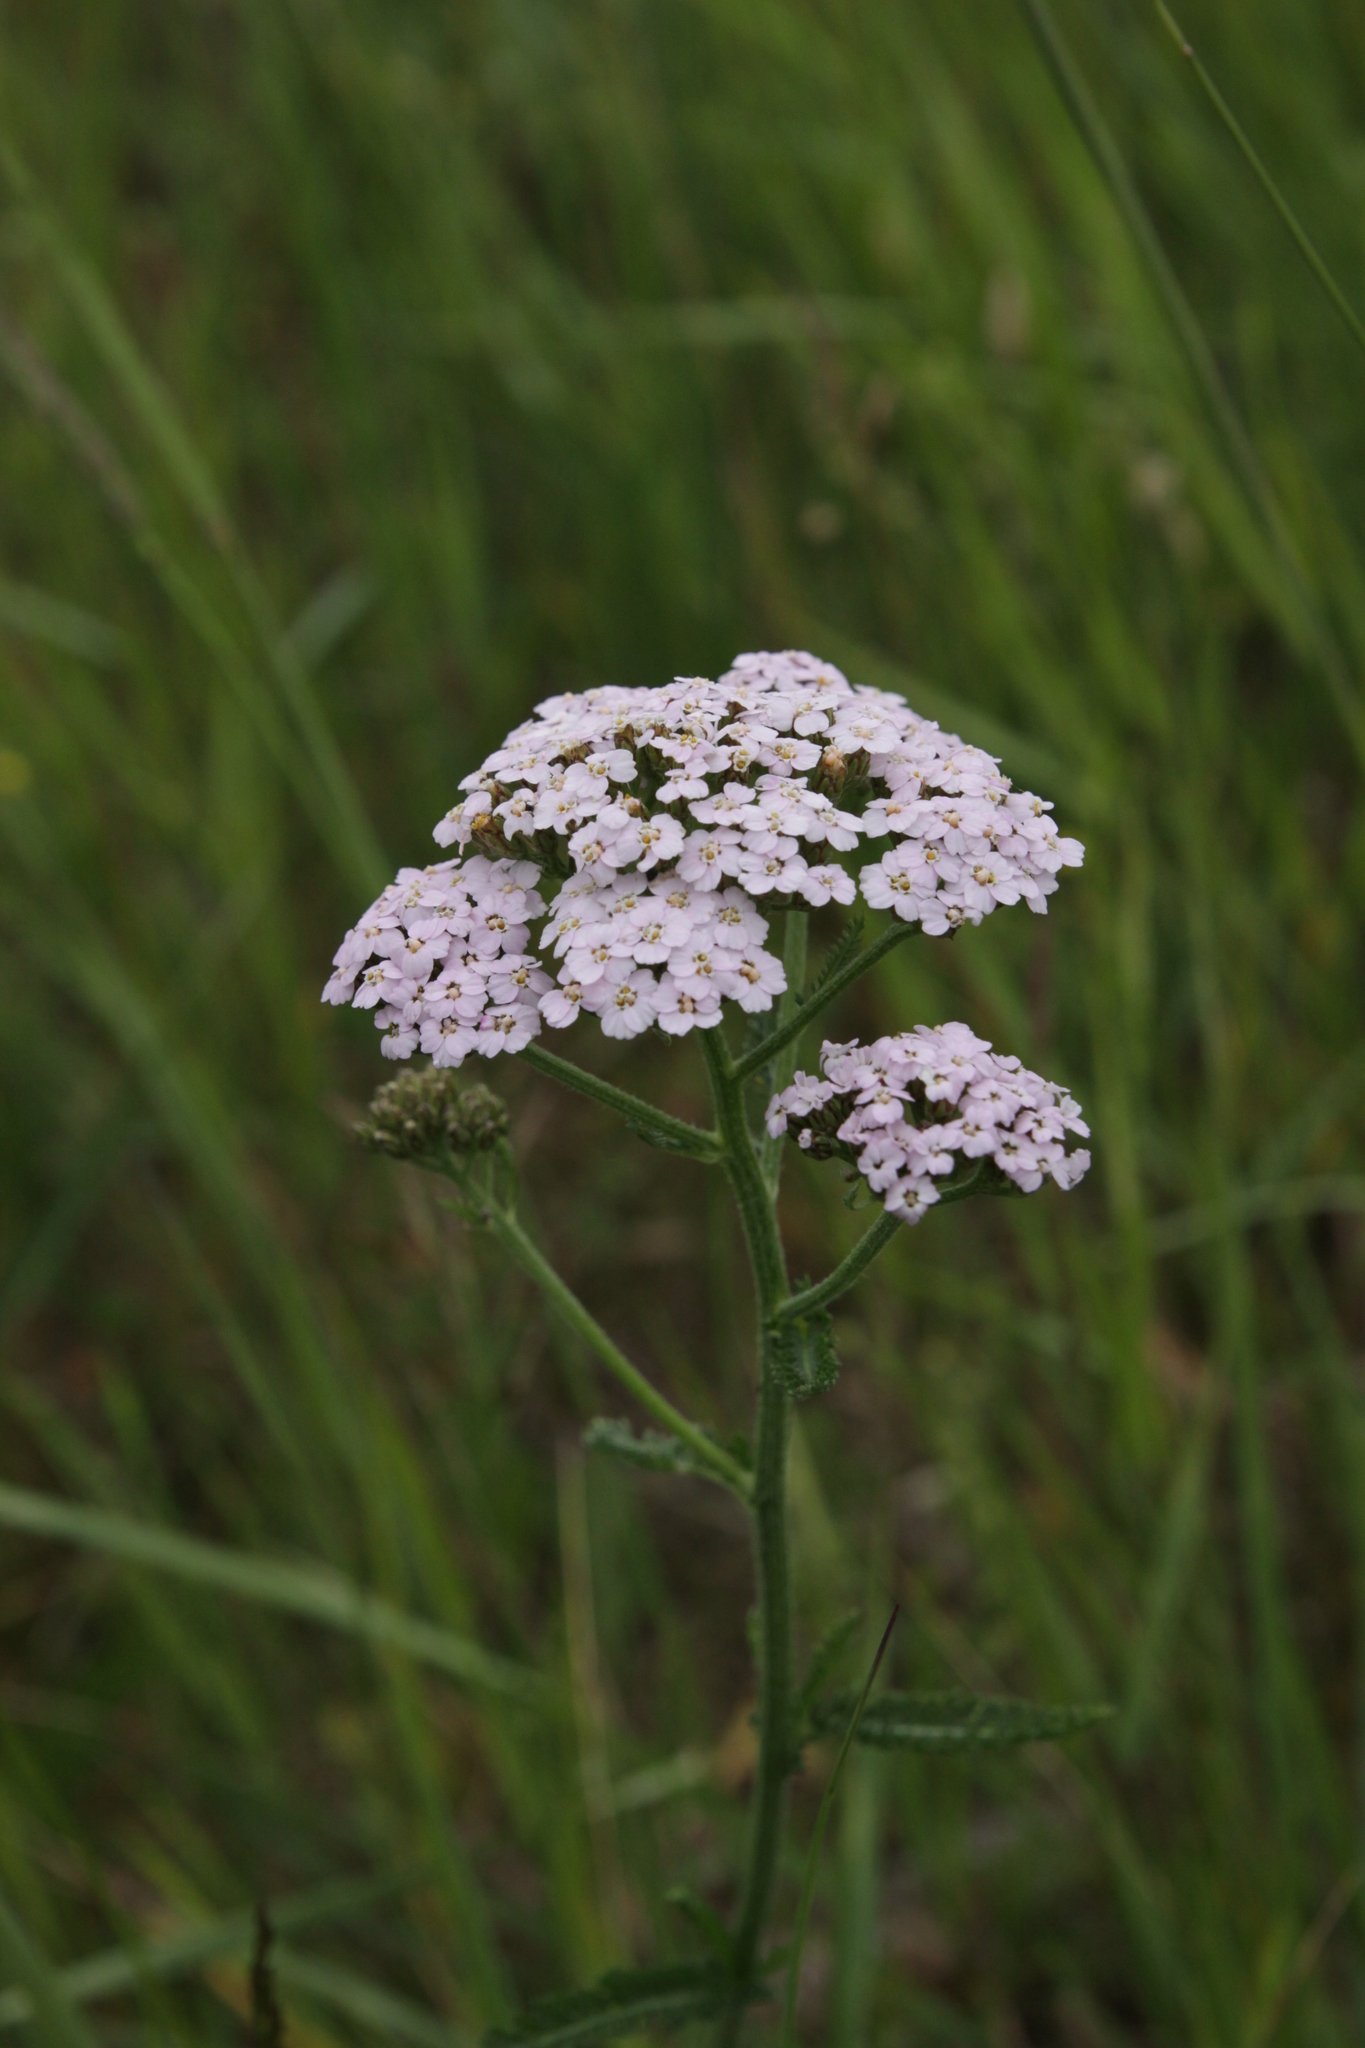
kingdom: Plantae
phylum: Tracheophyta
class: Magnoliopsida
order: Asterales
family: Asteraceae
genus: Achillea
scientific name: Achillea millefolium
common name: Yarrow
